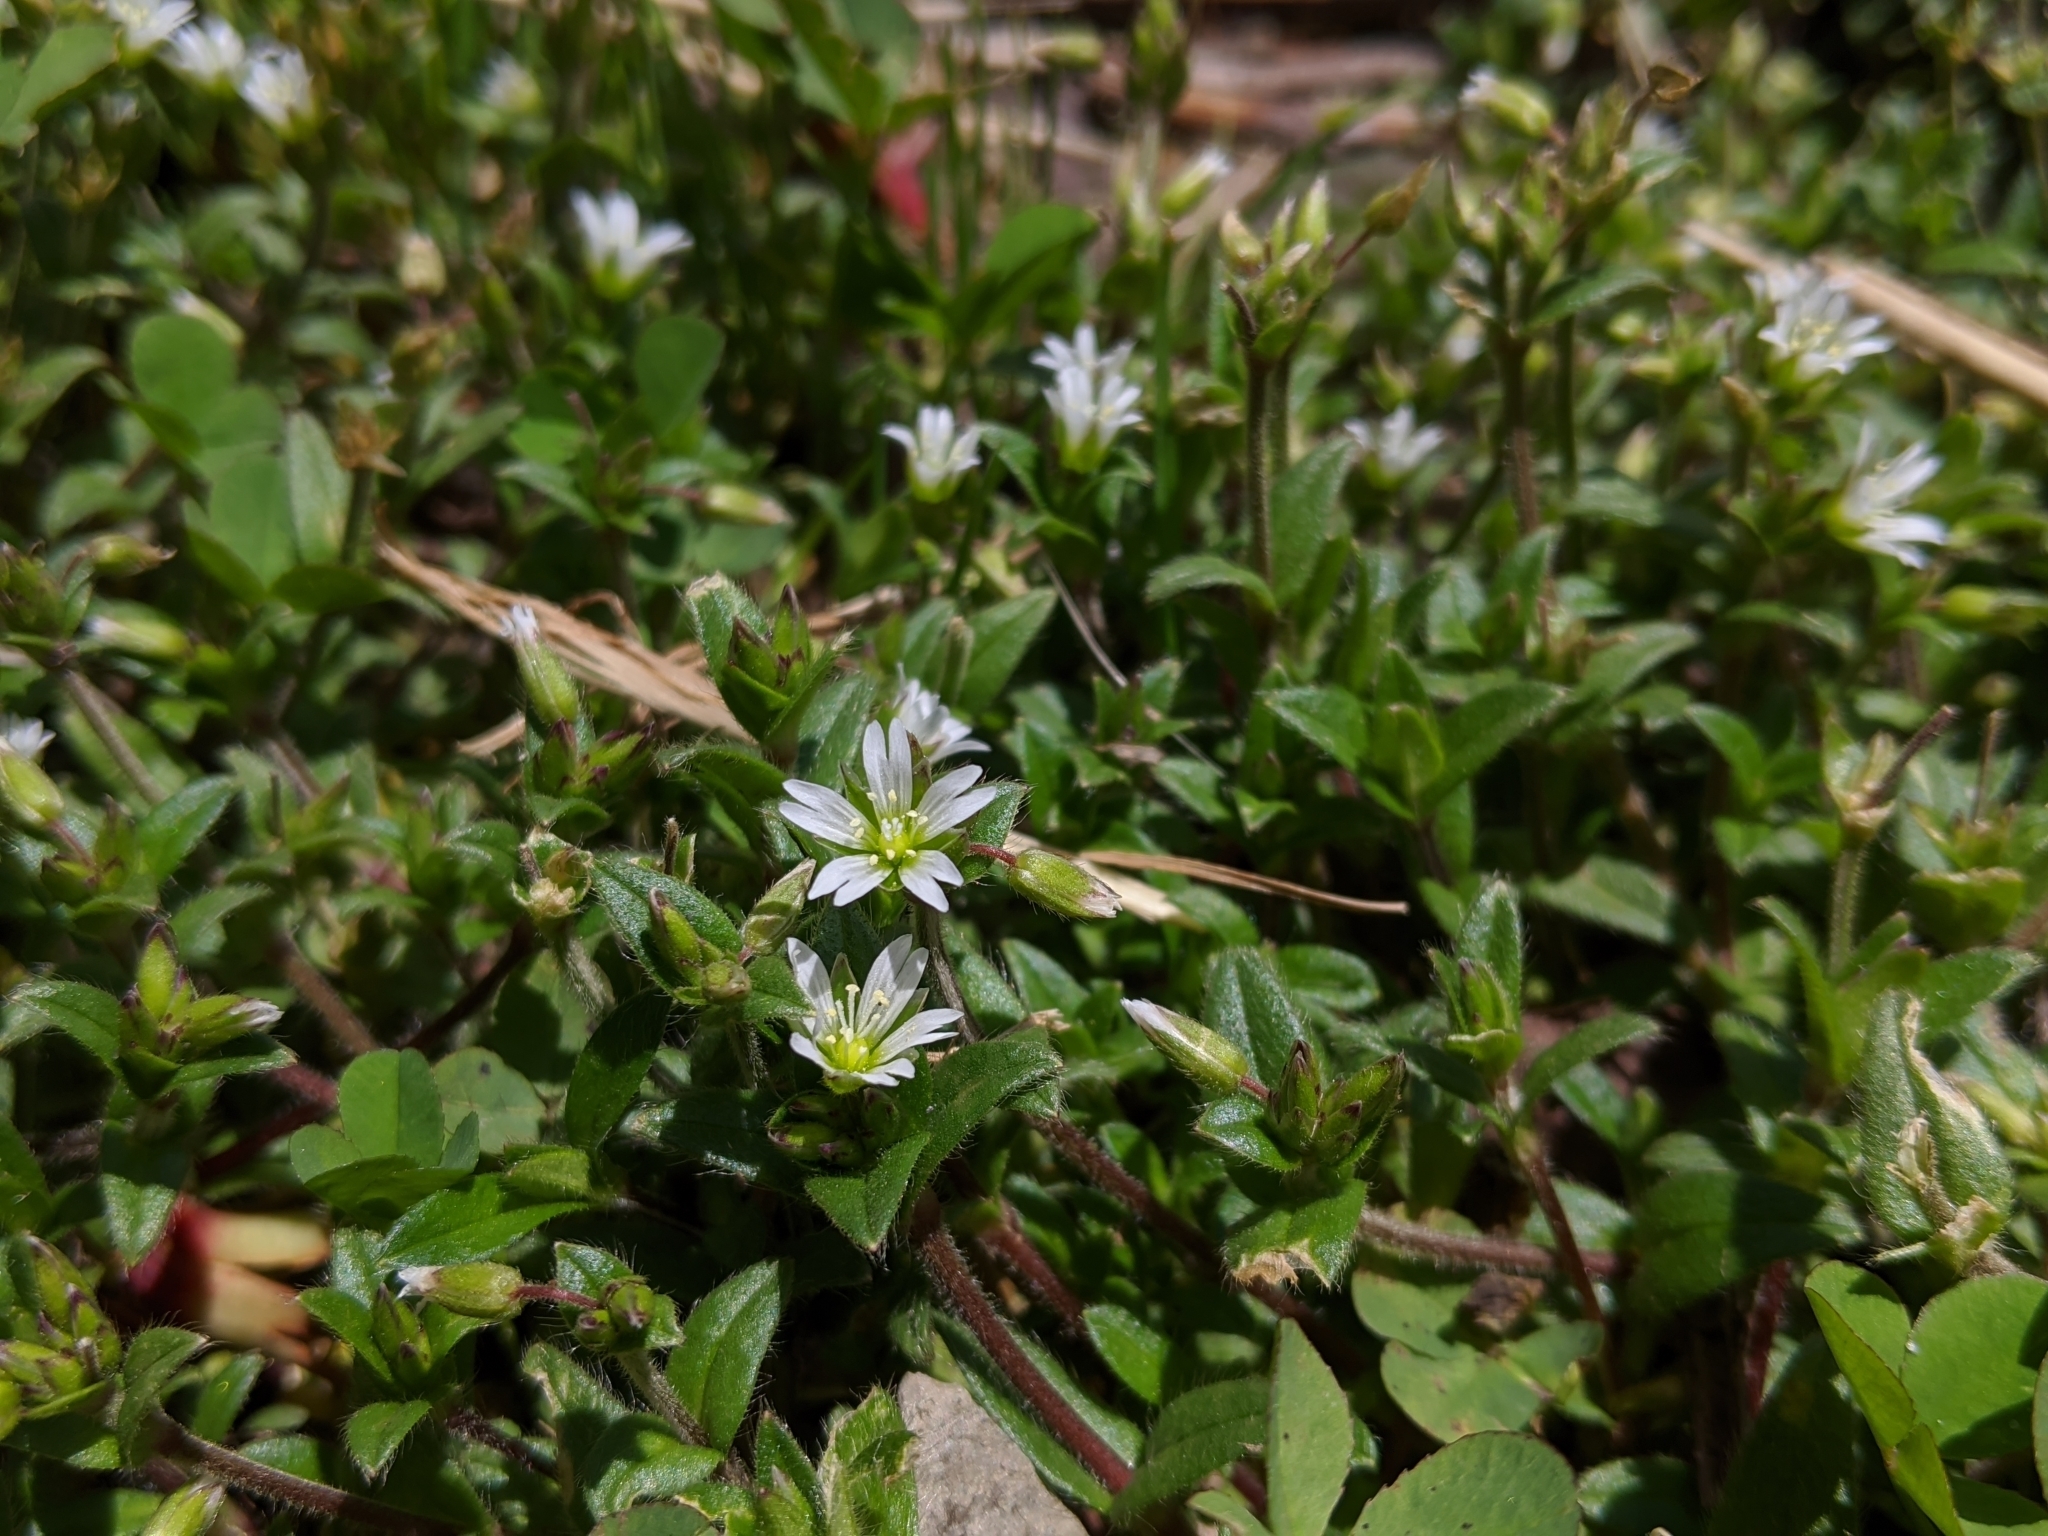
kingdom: Plantae
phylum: Tracheophyta
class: Magnoliopsida
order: Caryophyllales
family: Caryophyllaceae
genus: Cerastium
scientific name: Cerastium morrisonense
